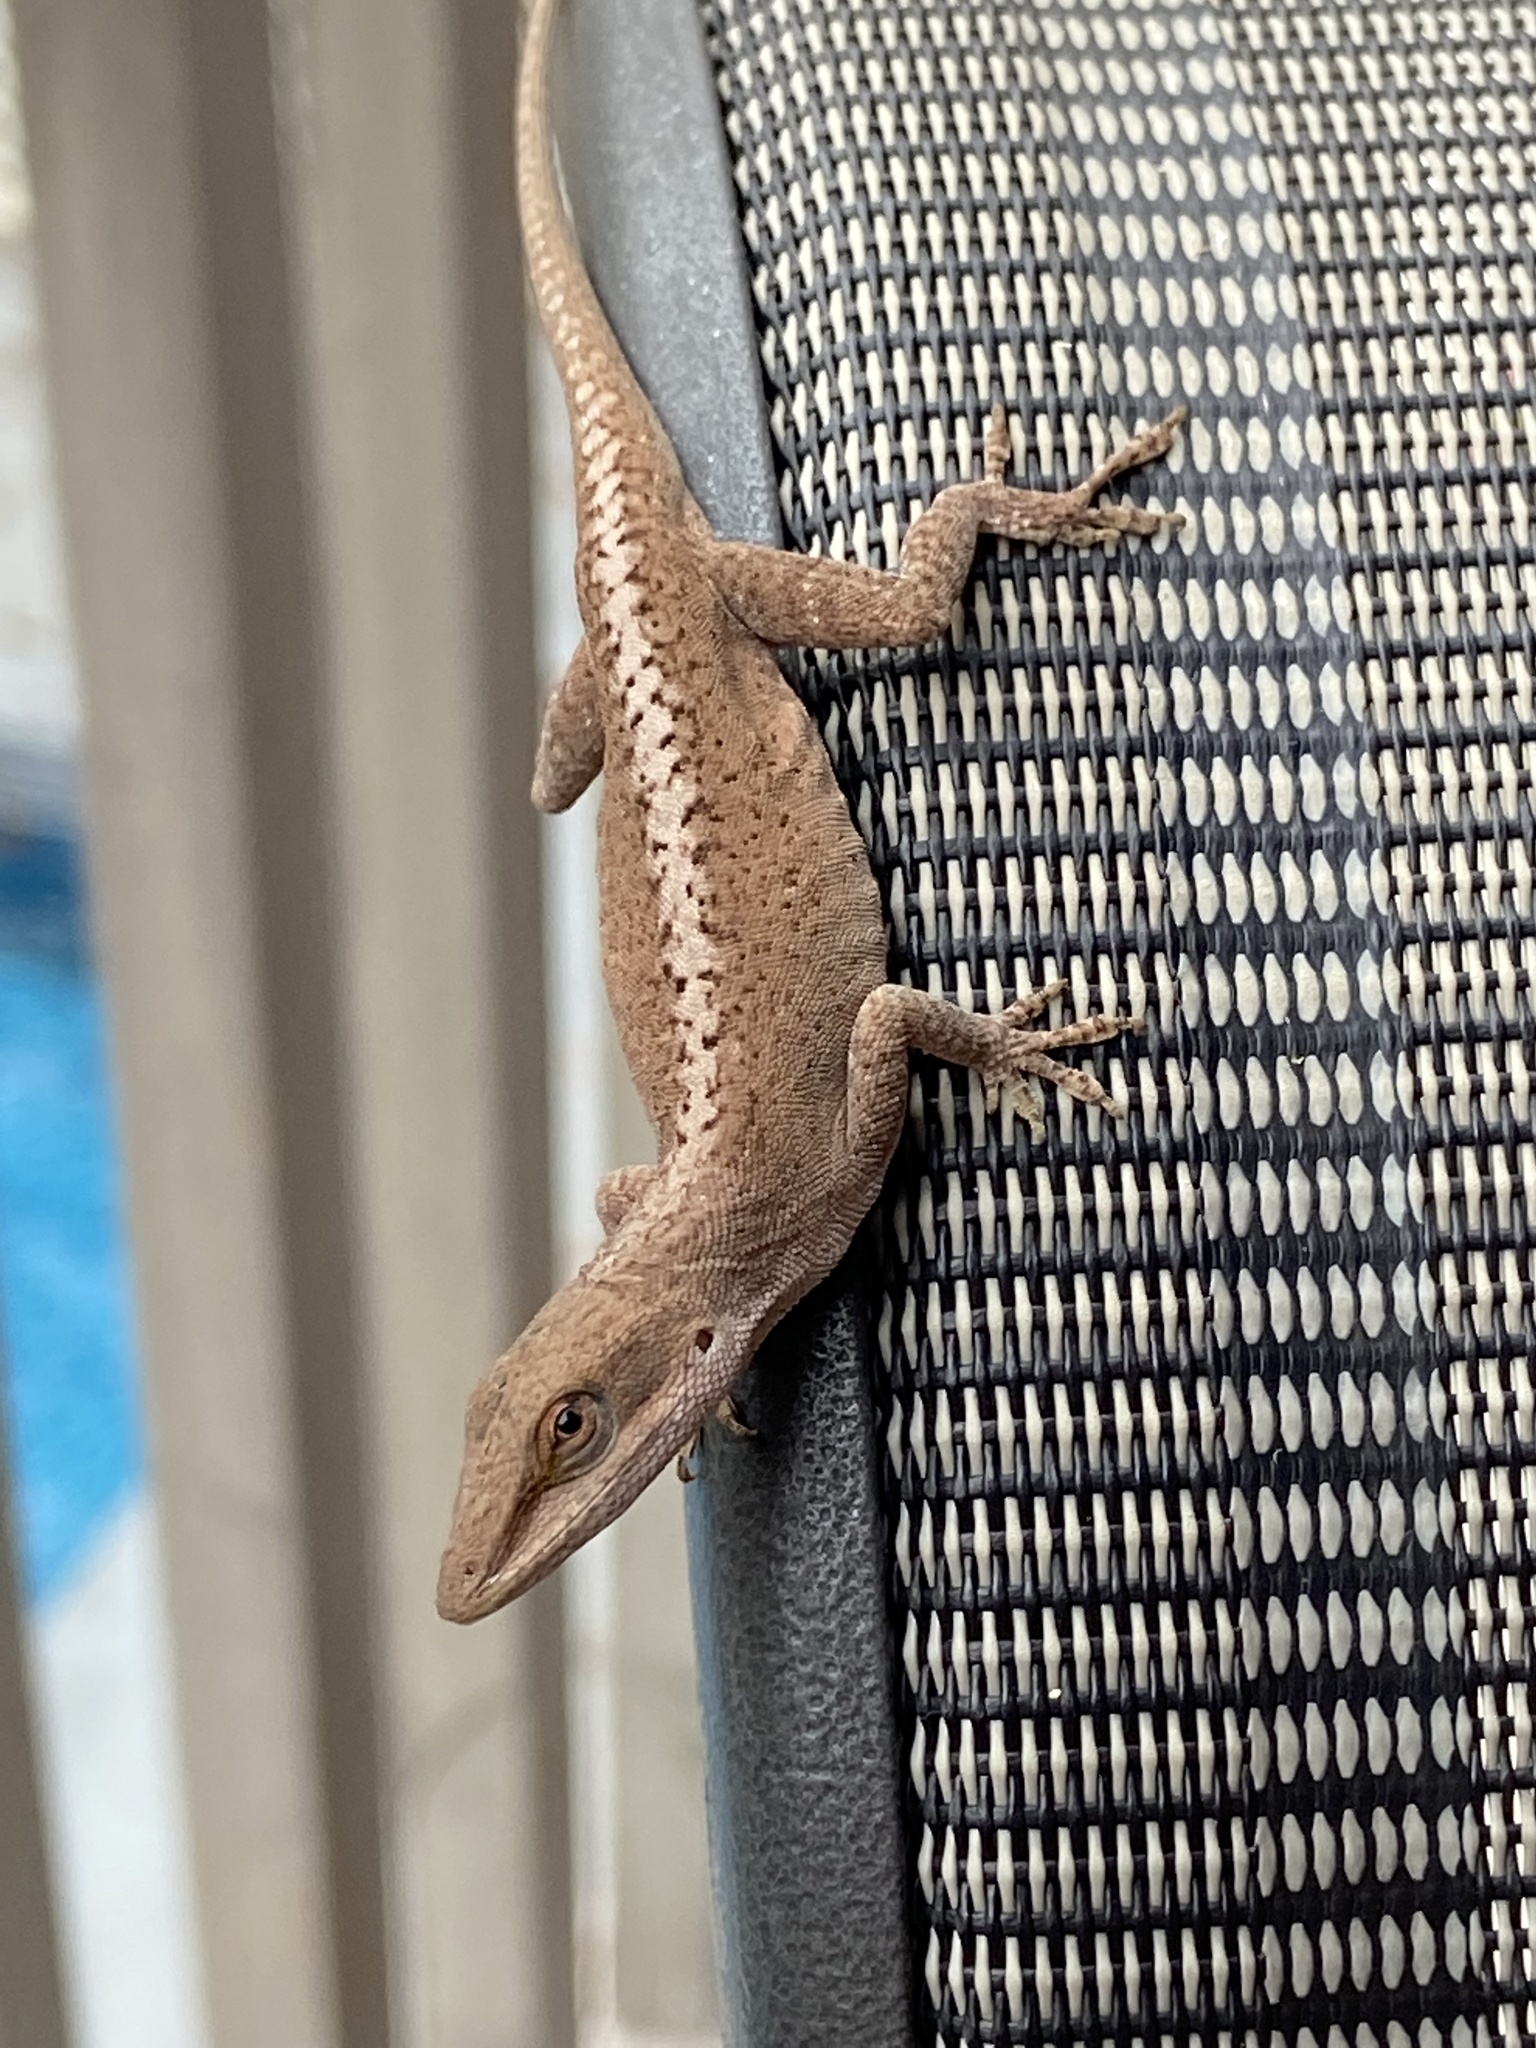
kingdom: Animalia
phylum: Chordata
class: Squamata
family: Dactyloidae
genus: Anolis
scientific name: Anolis carolinensis
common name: Green anole
